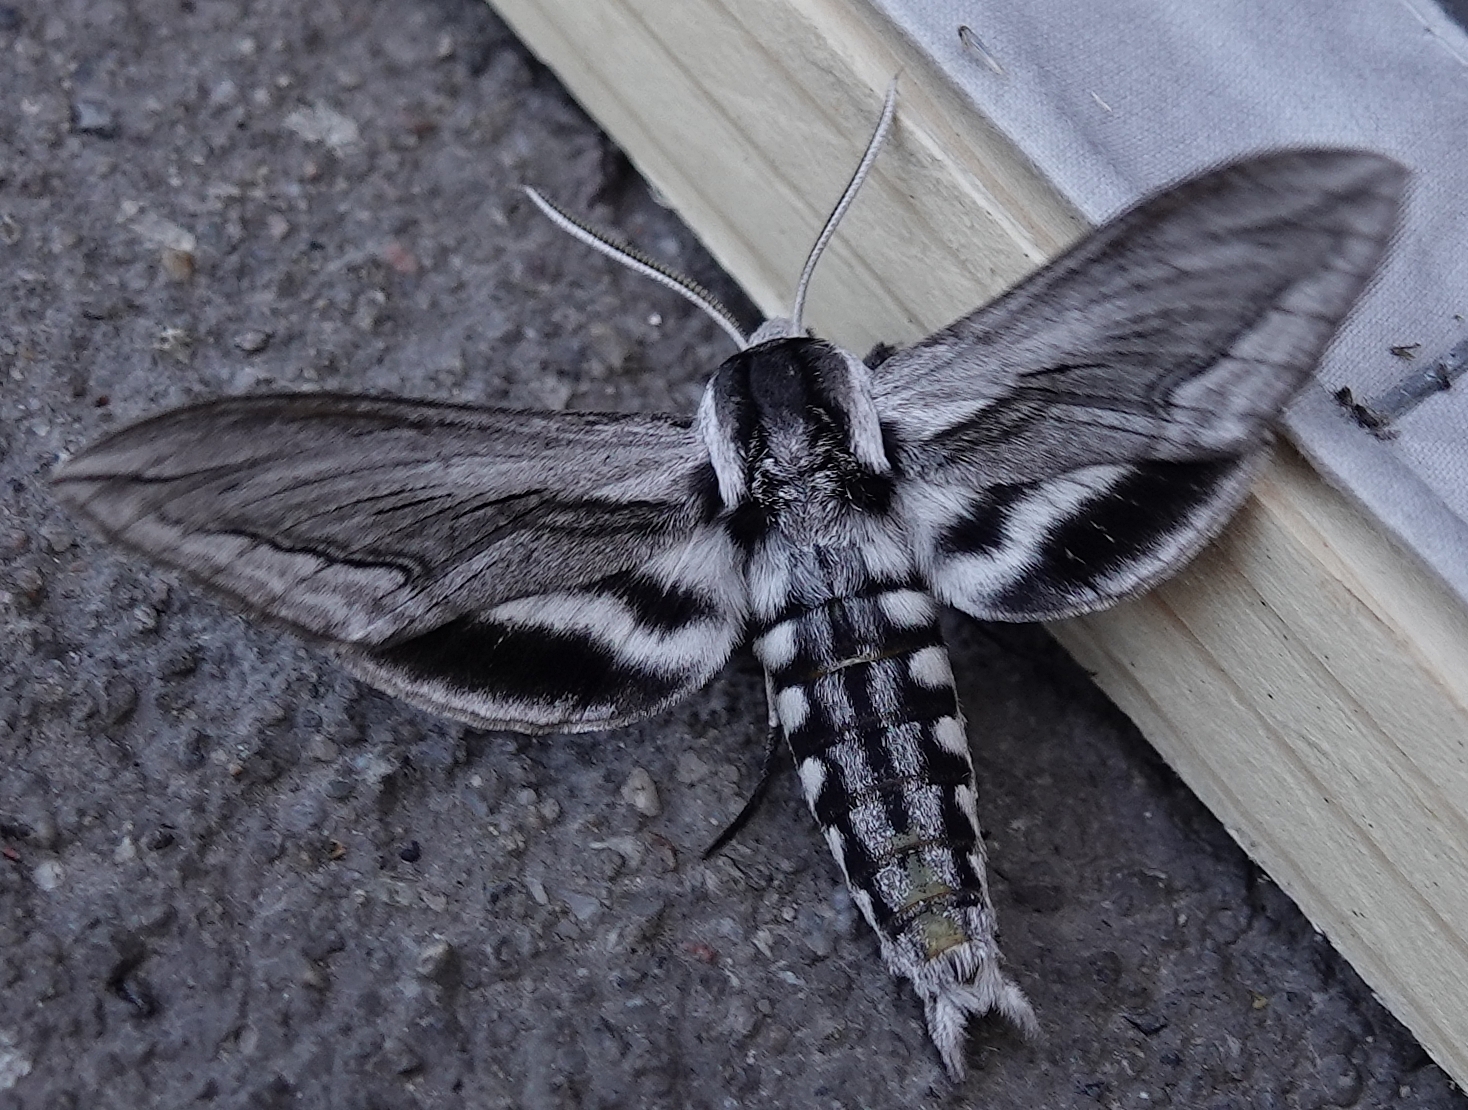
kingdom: Animalia
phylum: Arthropoda
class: Insecta
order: Lepidoptera
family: Sphingidae
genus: Sphinx
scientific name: Sphinx vashti
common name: Snowberry sphinx
